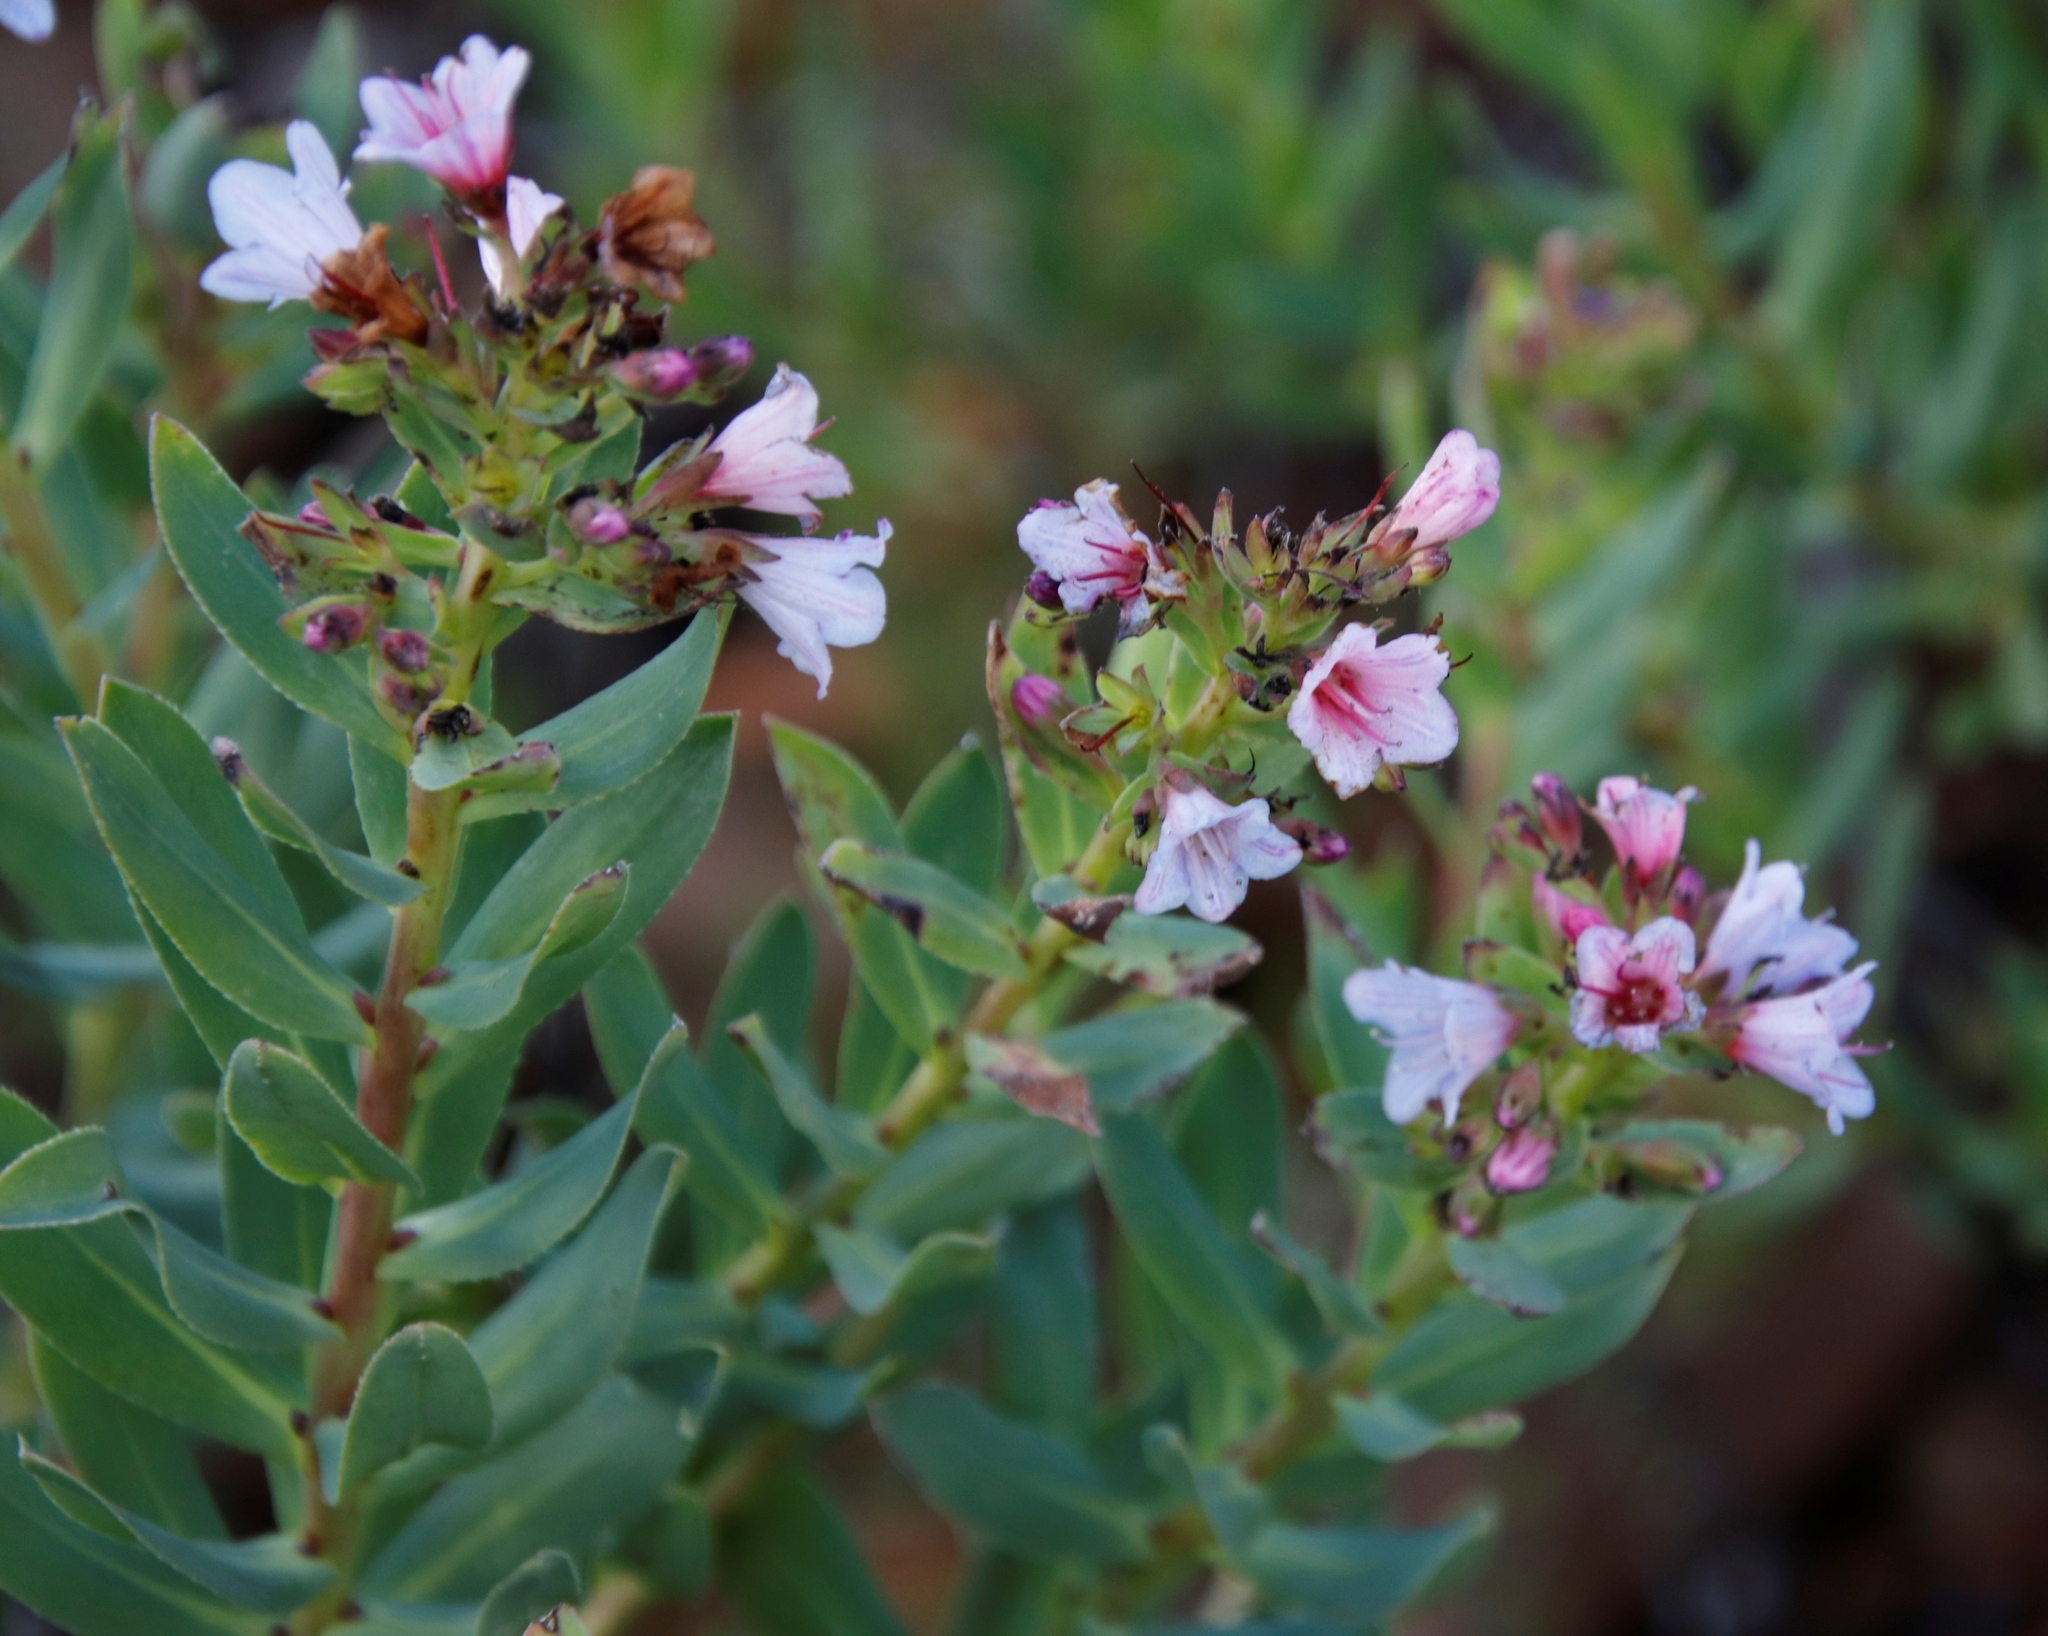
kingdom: Plantae
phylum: Tracheophyta
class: Magnoliopsida
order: Boraginales
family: Boraginaceae
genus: Lobostemon
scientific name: Lobostemon glaucophyllus
